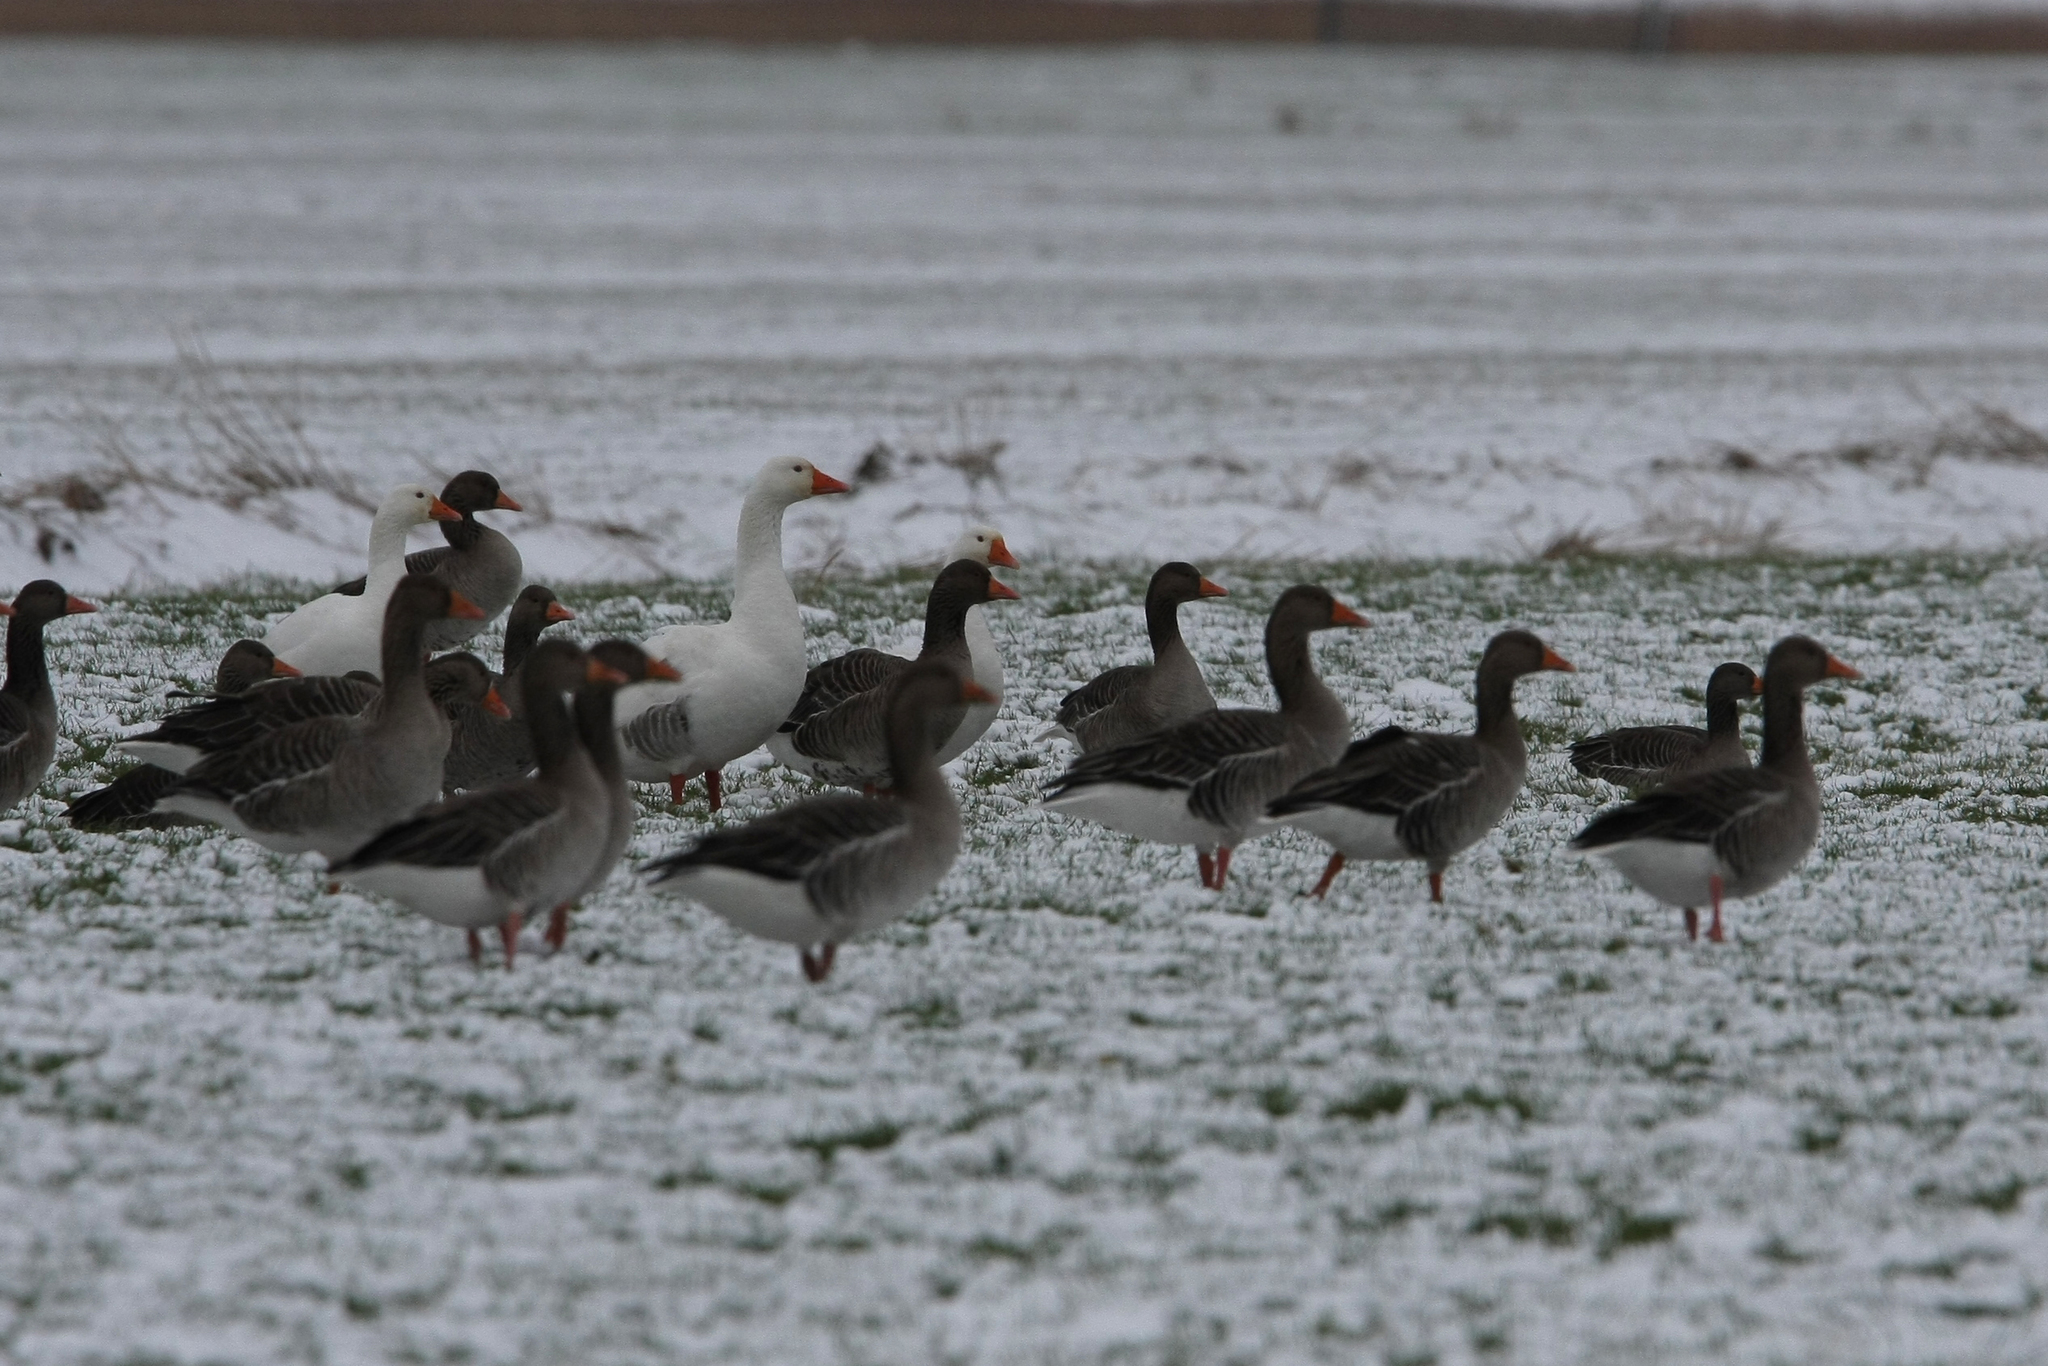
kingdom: Animalia
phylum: Chordata
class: Aves
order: Anseriformes
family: Anatidae
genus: Anser
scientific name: Anser anser
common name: Greylag goose
